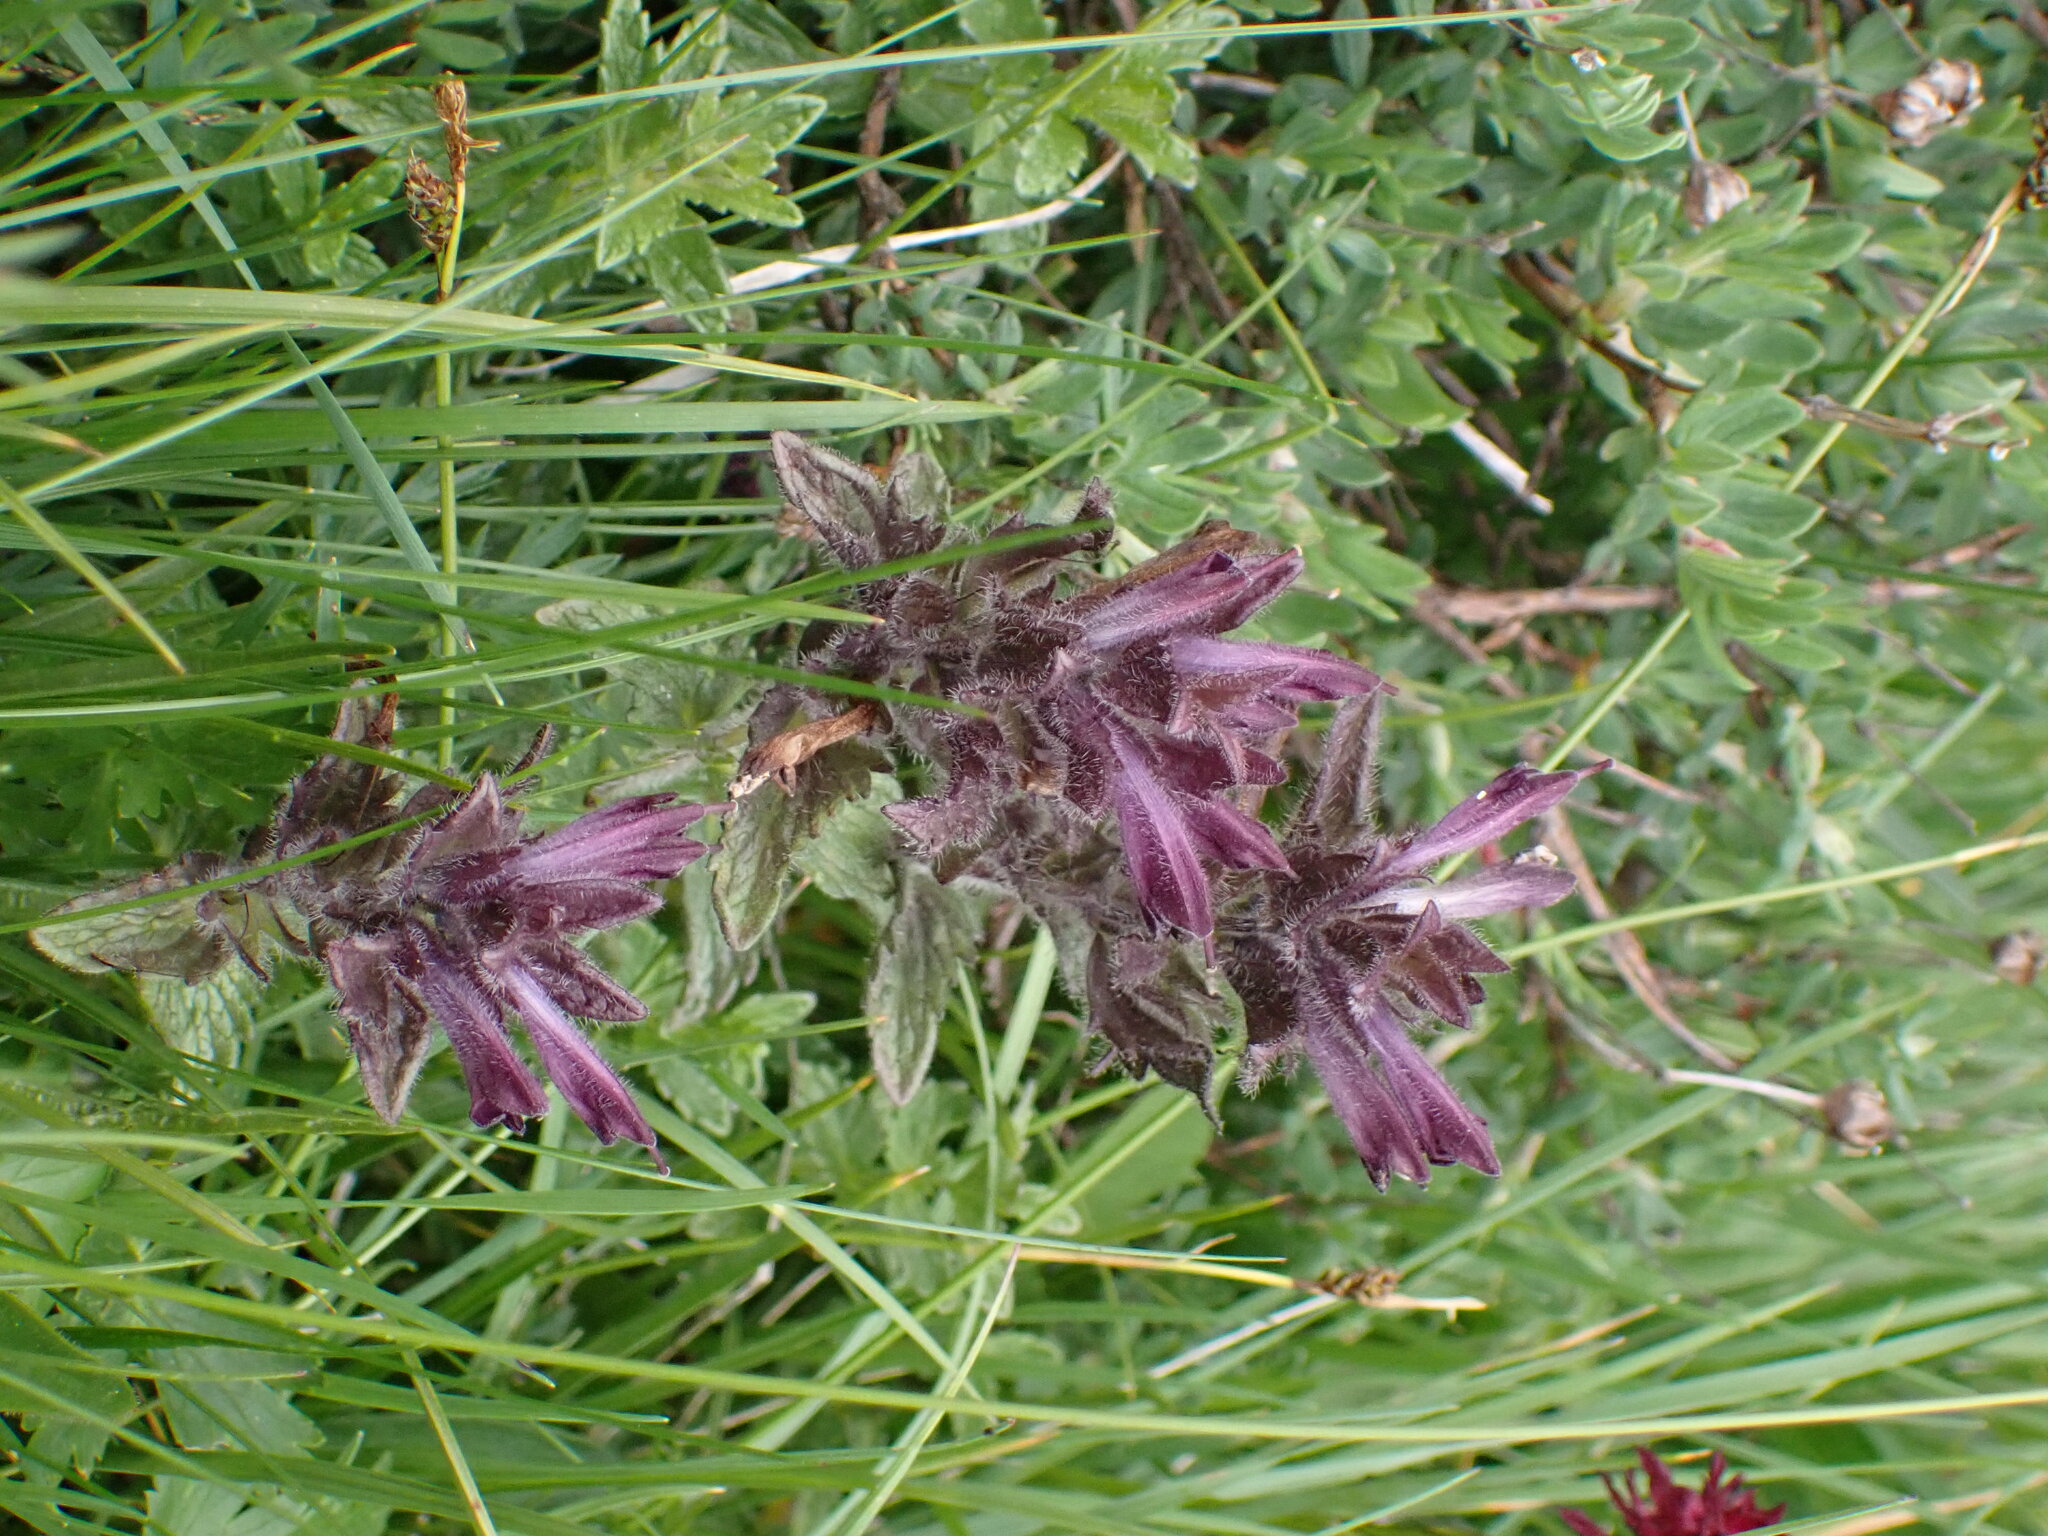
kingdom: Plantae
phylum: Tracheophyta
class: Magnoliopsida
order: Lamiales
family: Orobanchaceae
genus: Bartsia
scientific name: Bartsia alpina
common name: Alpine bartsia
